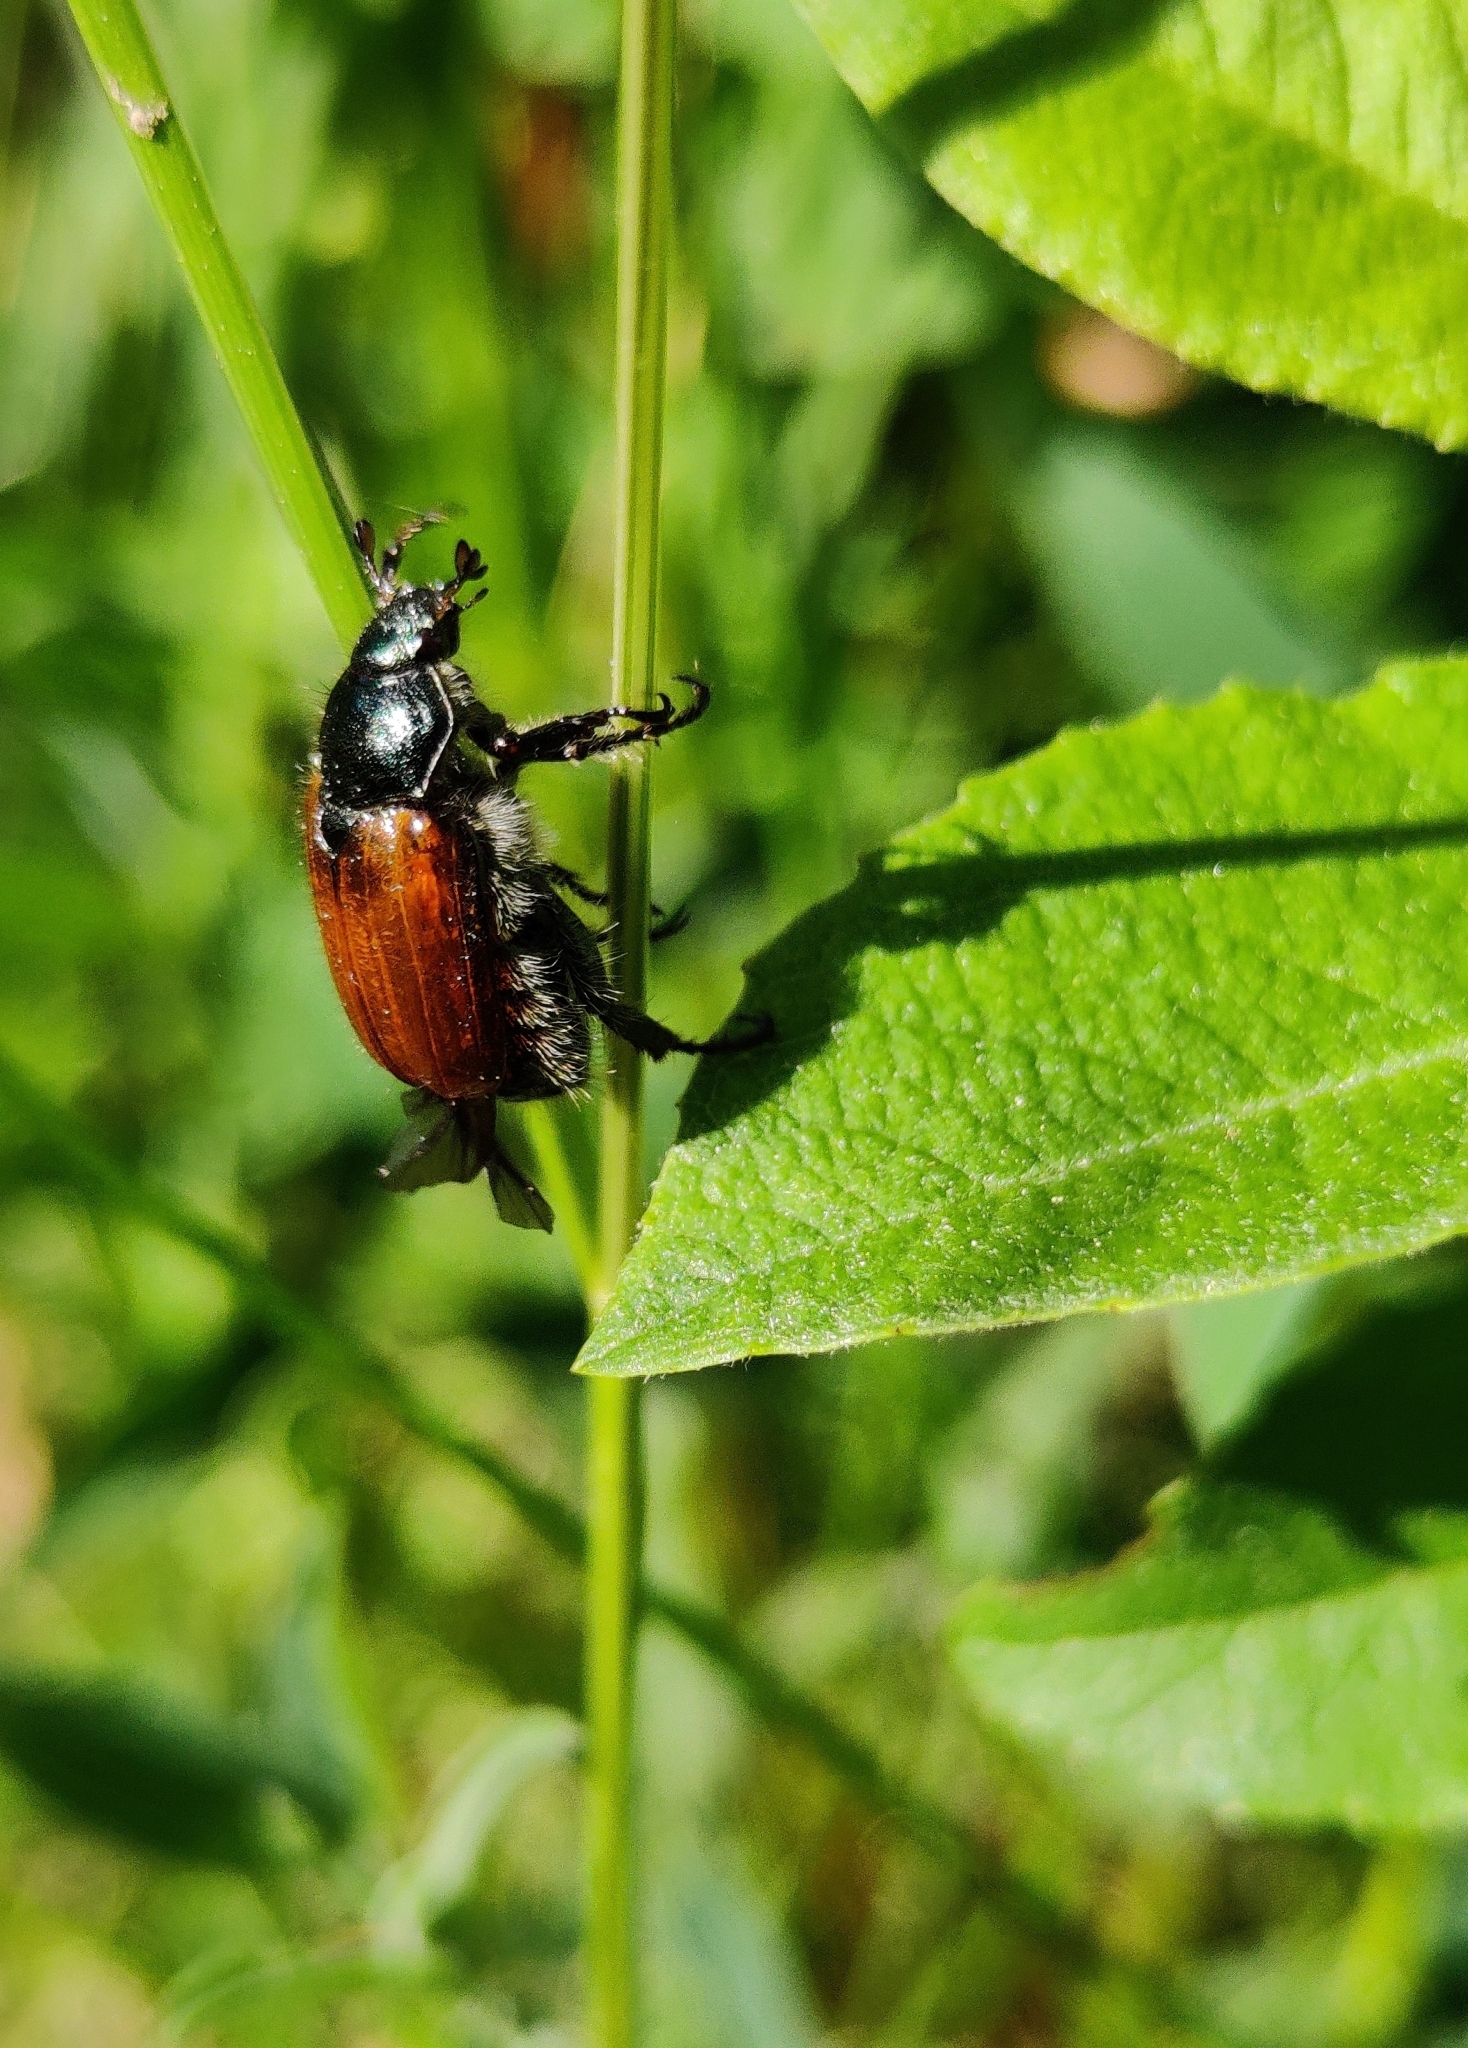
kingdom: Animalia
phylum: Arthropoda
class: Insecta
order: Coleoptera
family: Scarabaeidae
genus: Phyllopertha
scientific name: Phyllopertha horticola
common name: Garden chafer
